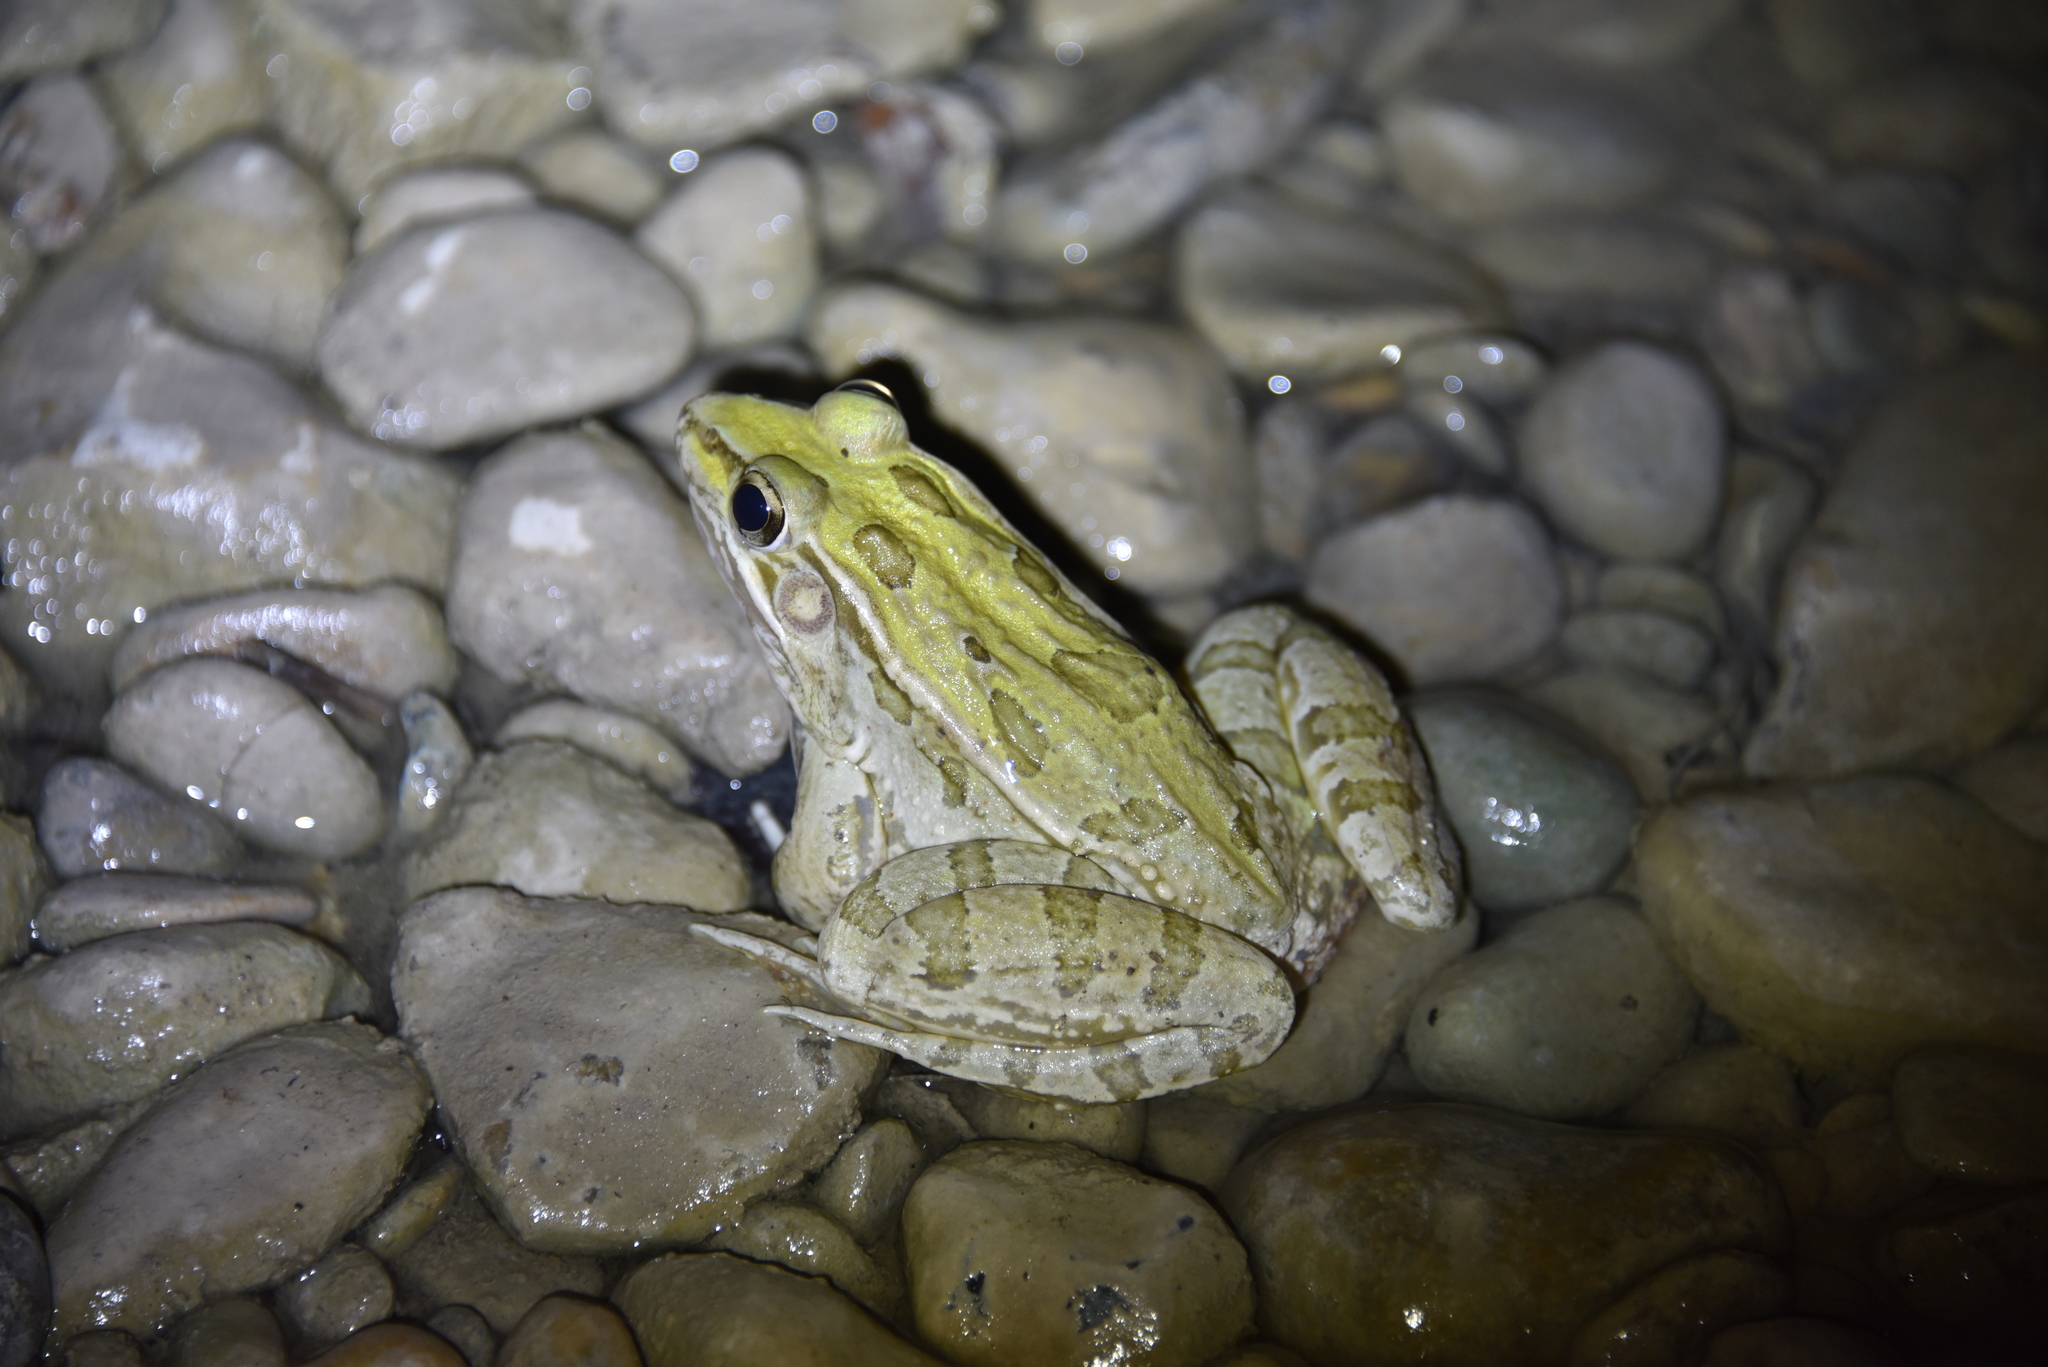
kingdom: Animalia
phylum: Chordata
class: Amphibia
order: Anura
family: Ranidae
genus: Lithobates
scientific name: Lithobates berlandieri
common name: Rio grande leopard frog
